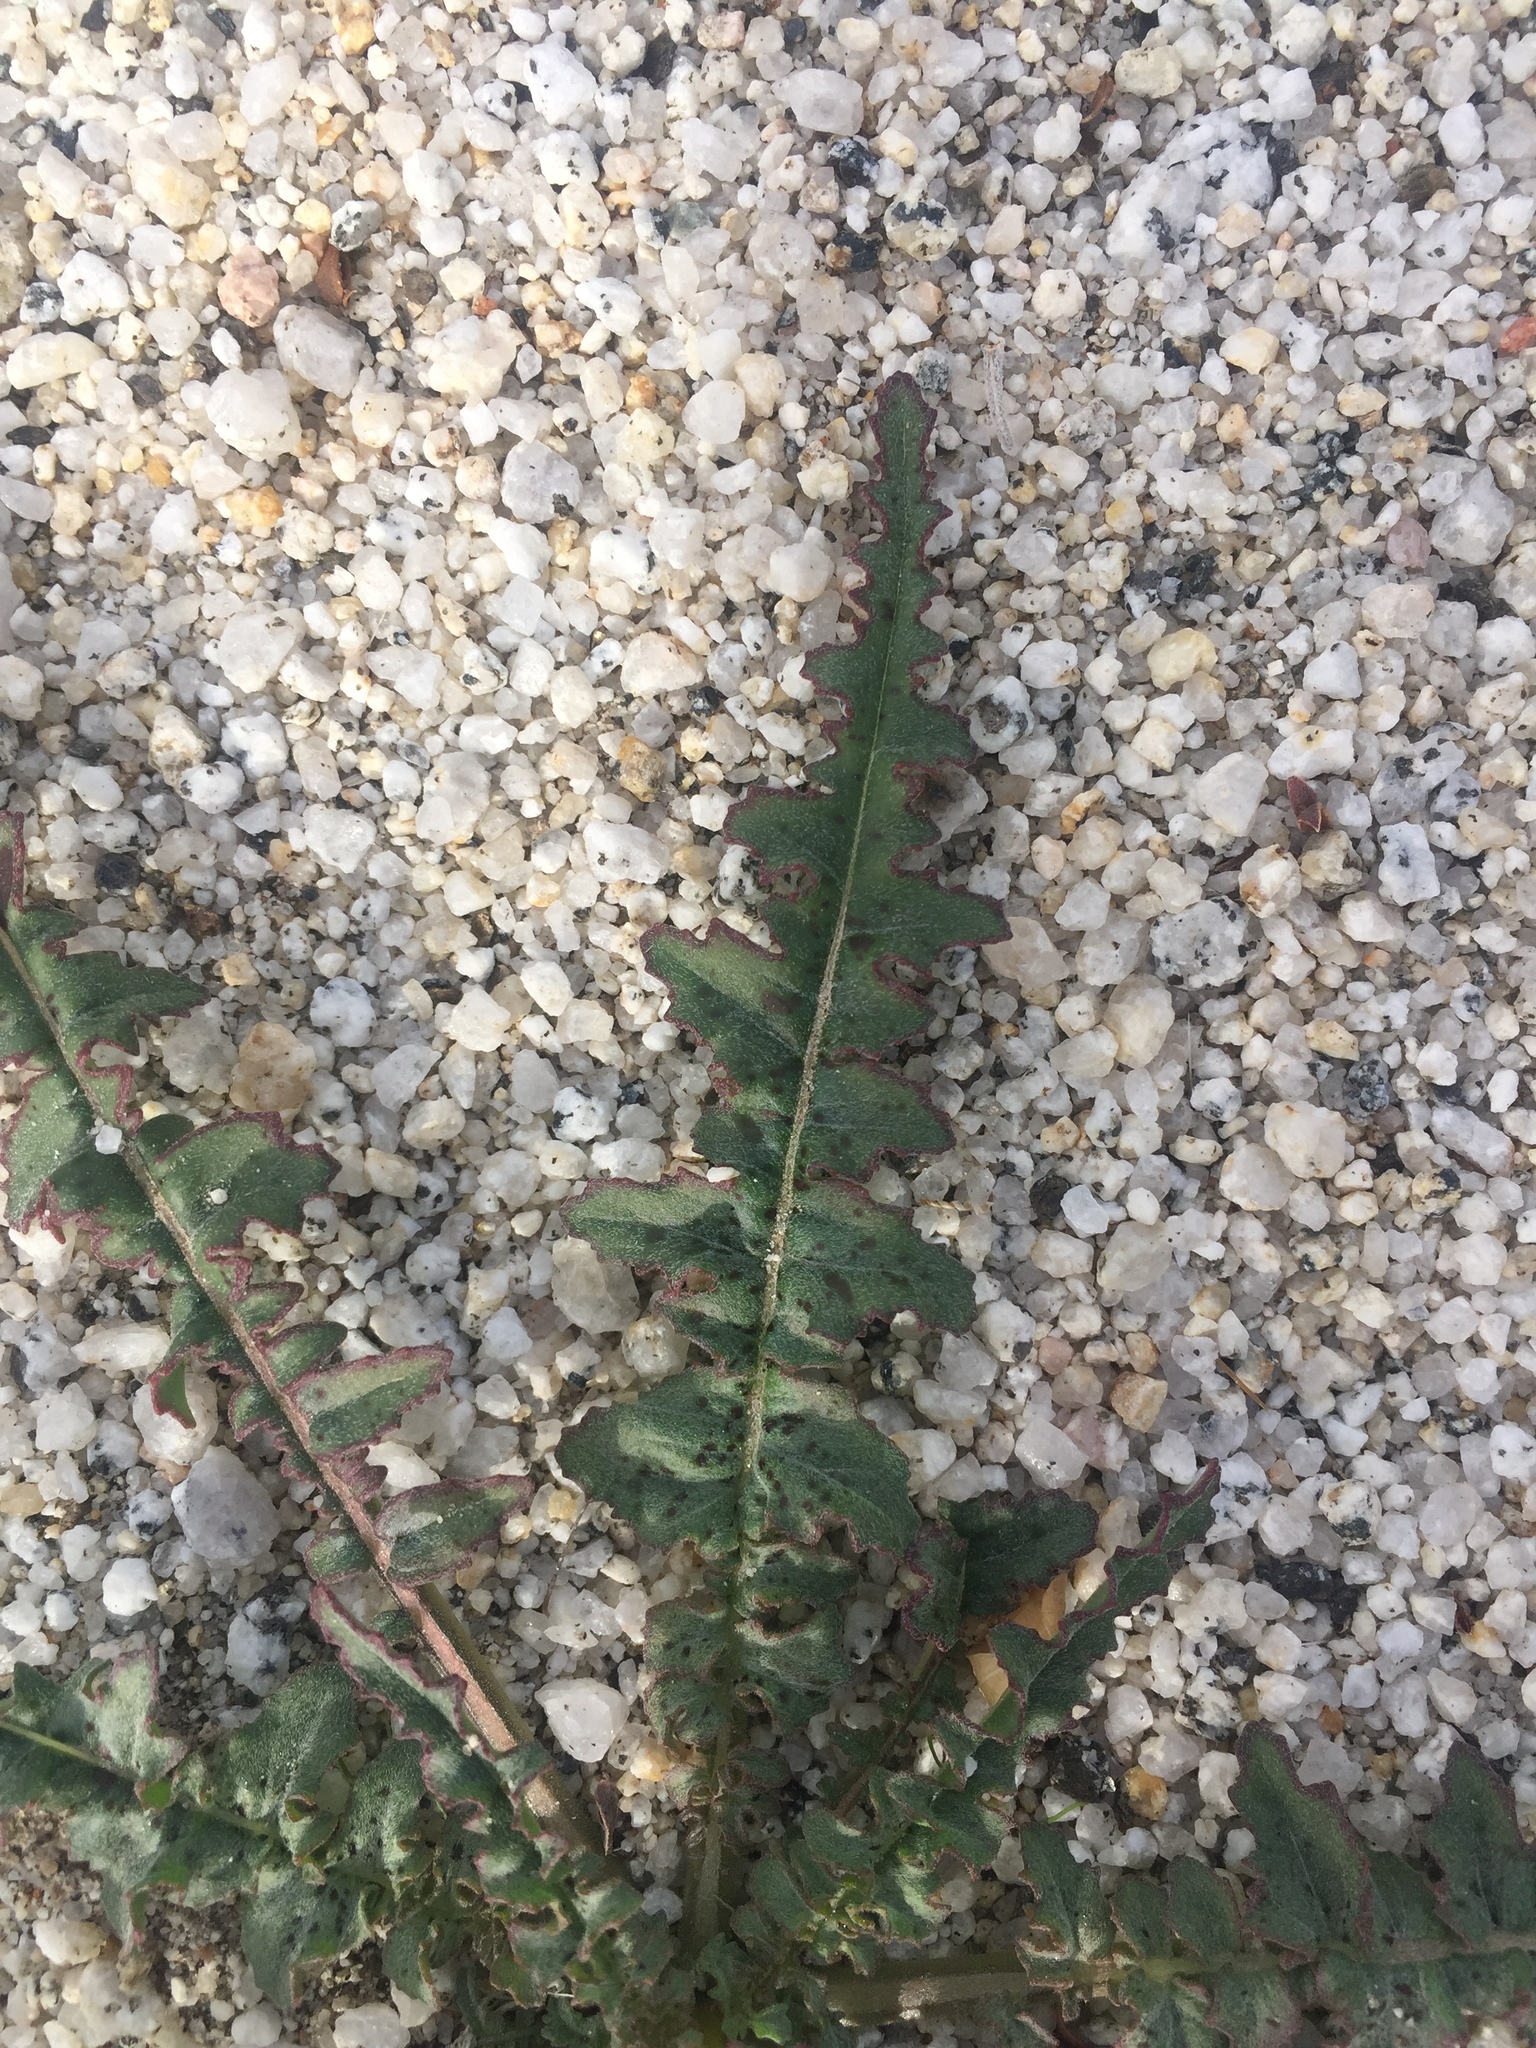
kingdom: Plantae
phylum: Tracheophyta
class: Magnoliopsida
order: Myrtales
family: Onagraceae
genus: Eulobus
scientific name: Eulobus californicus
